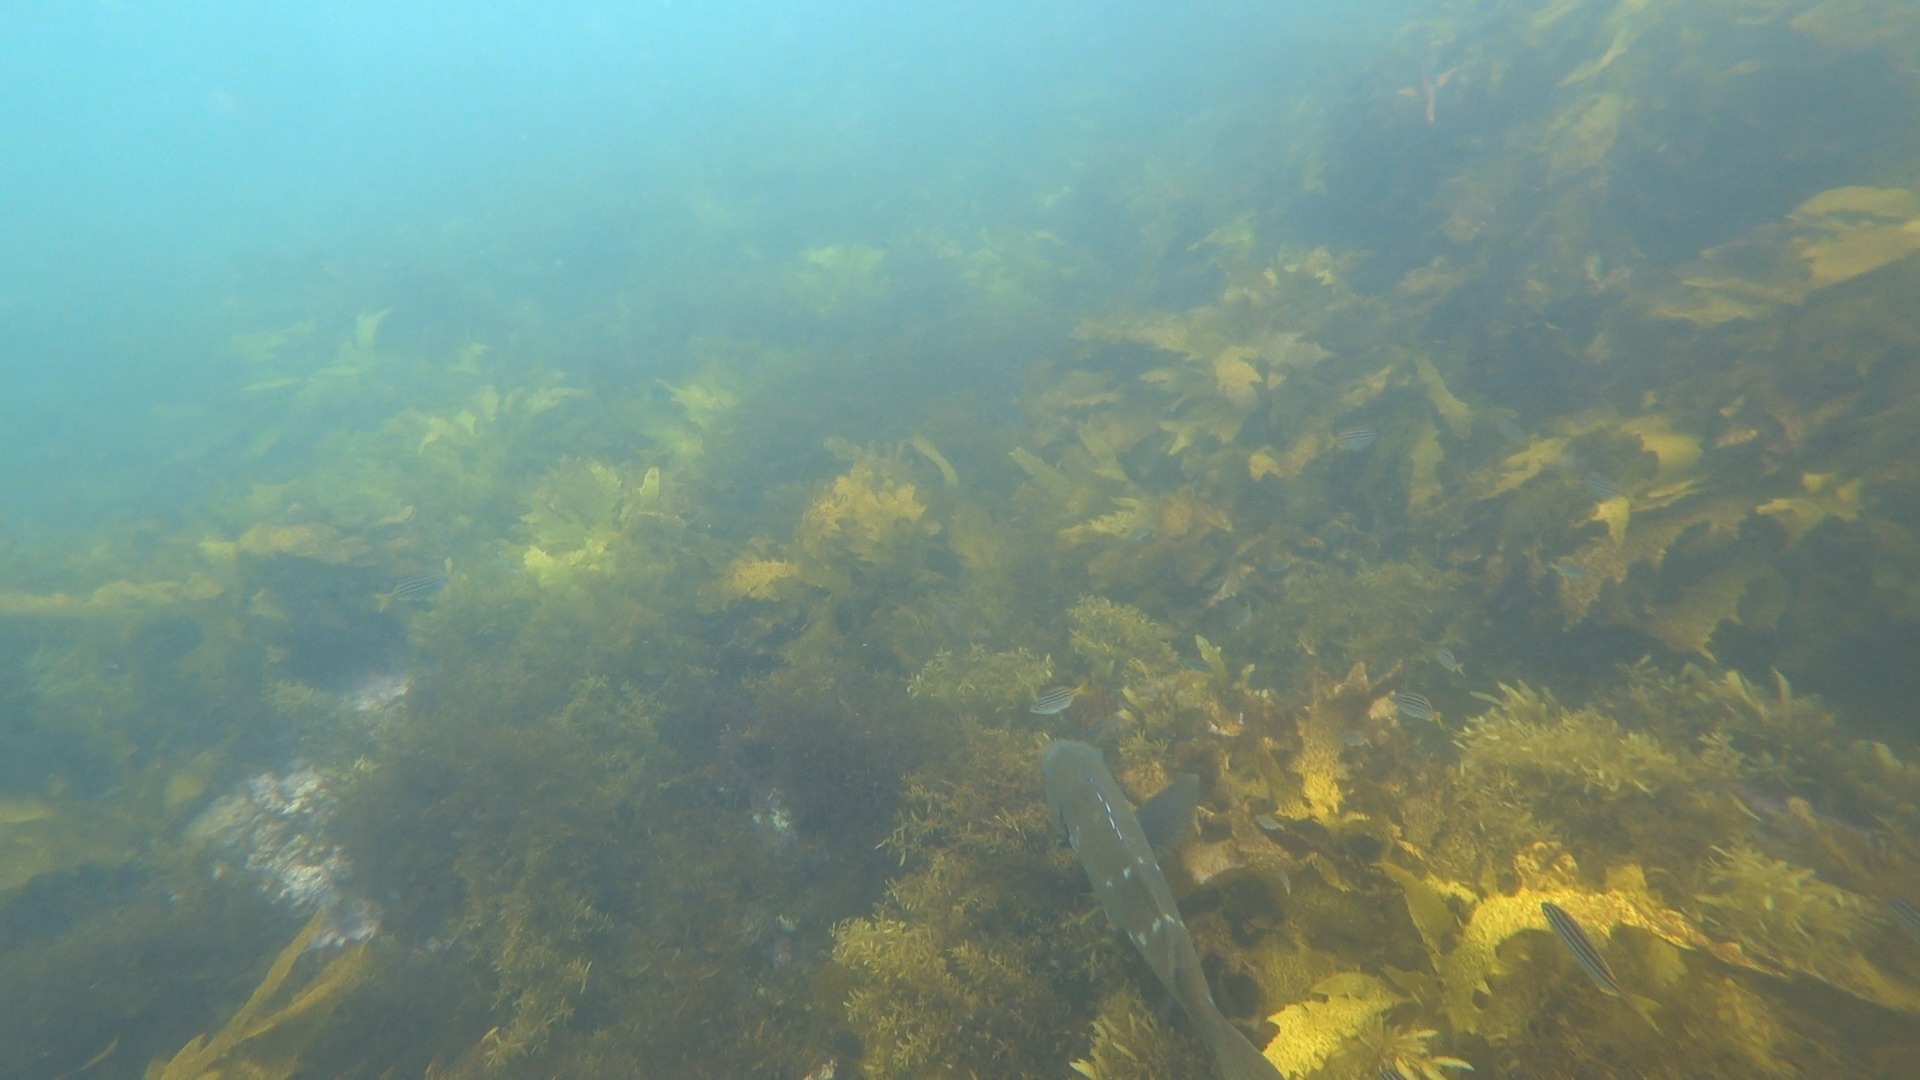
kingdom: Animalia
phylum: Chordata
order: Perciformes
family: Labridae
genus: Achoerodus
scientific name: Achoerodus viridis
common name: Brown groper
